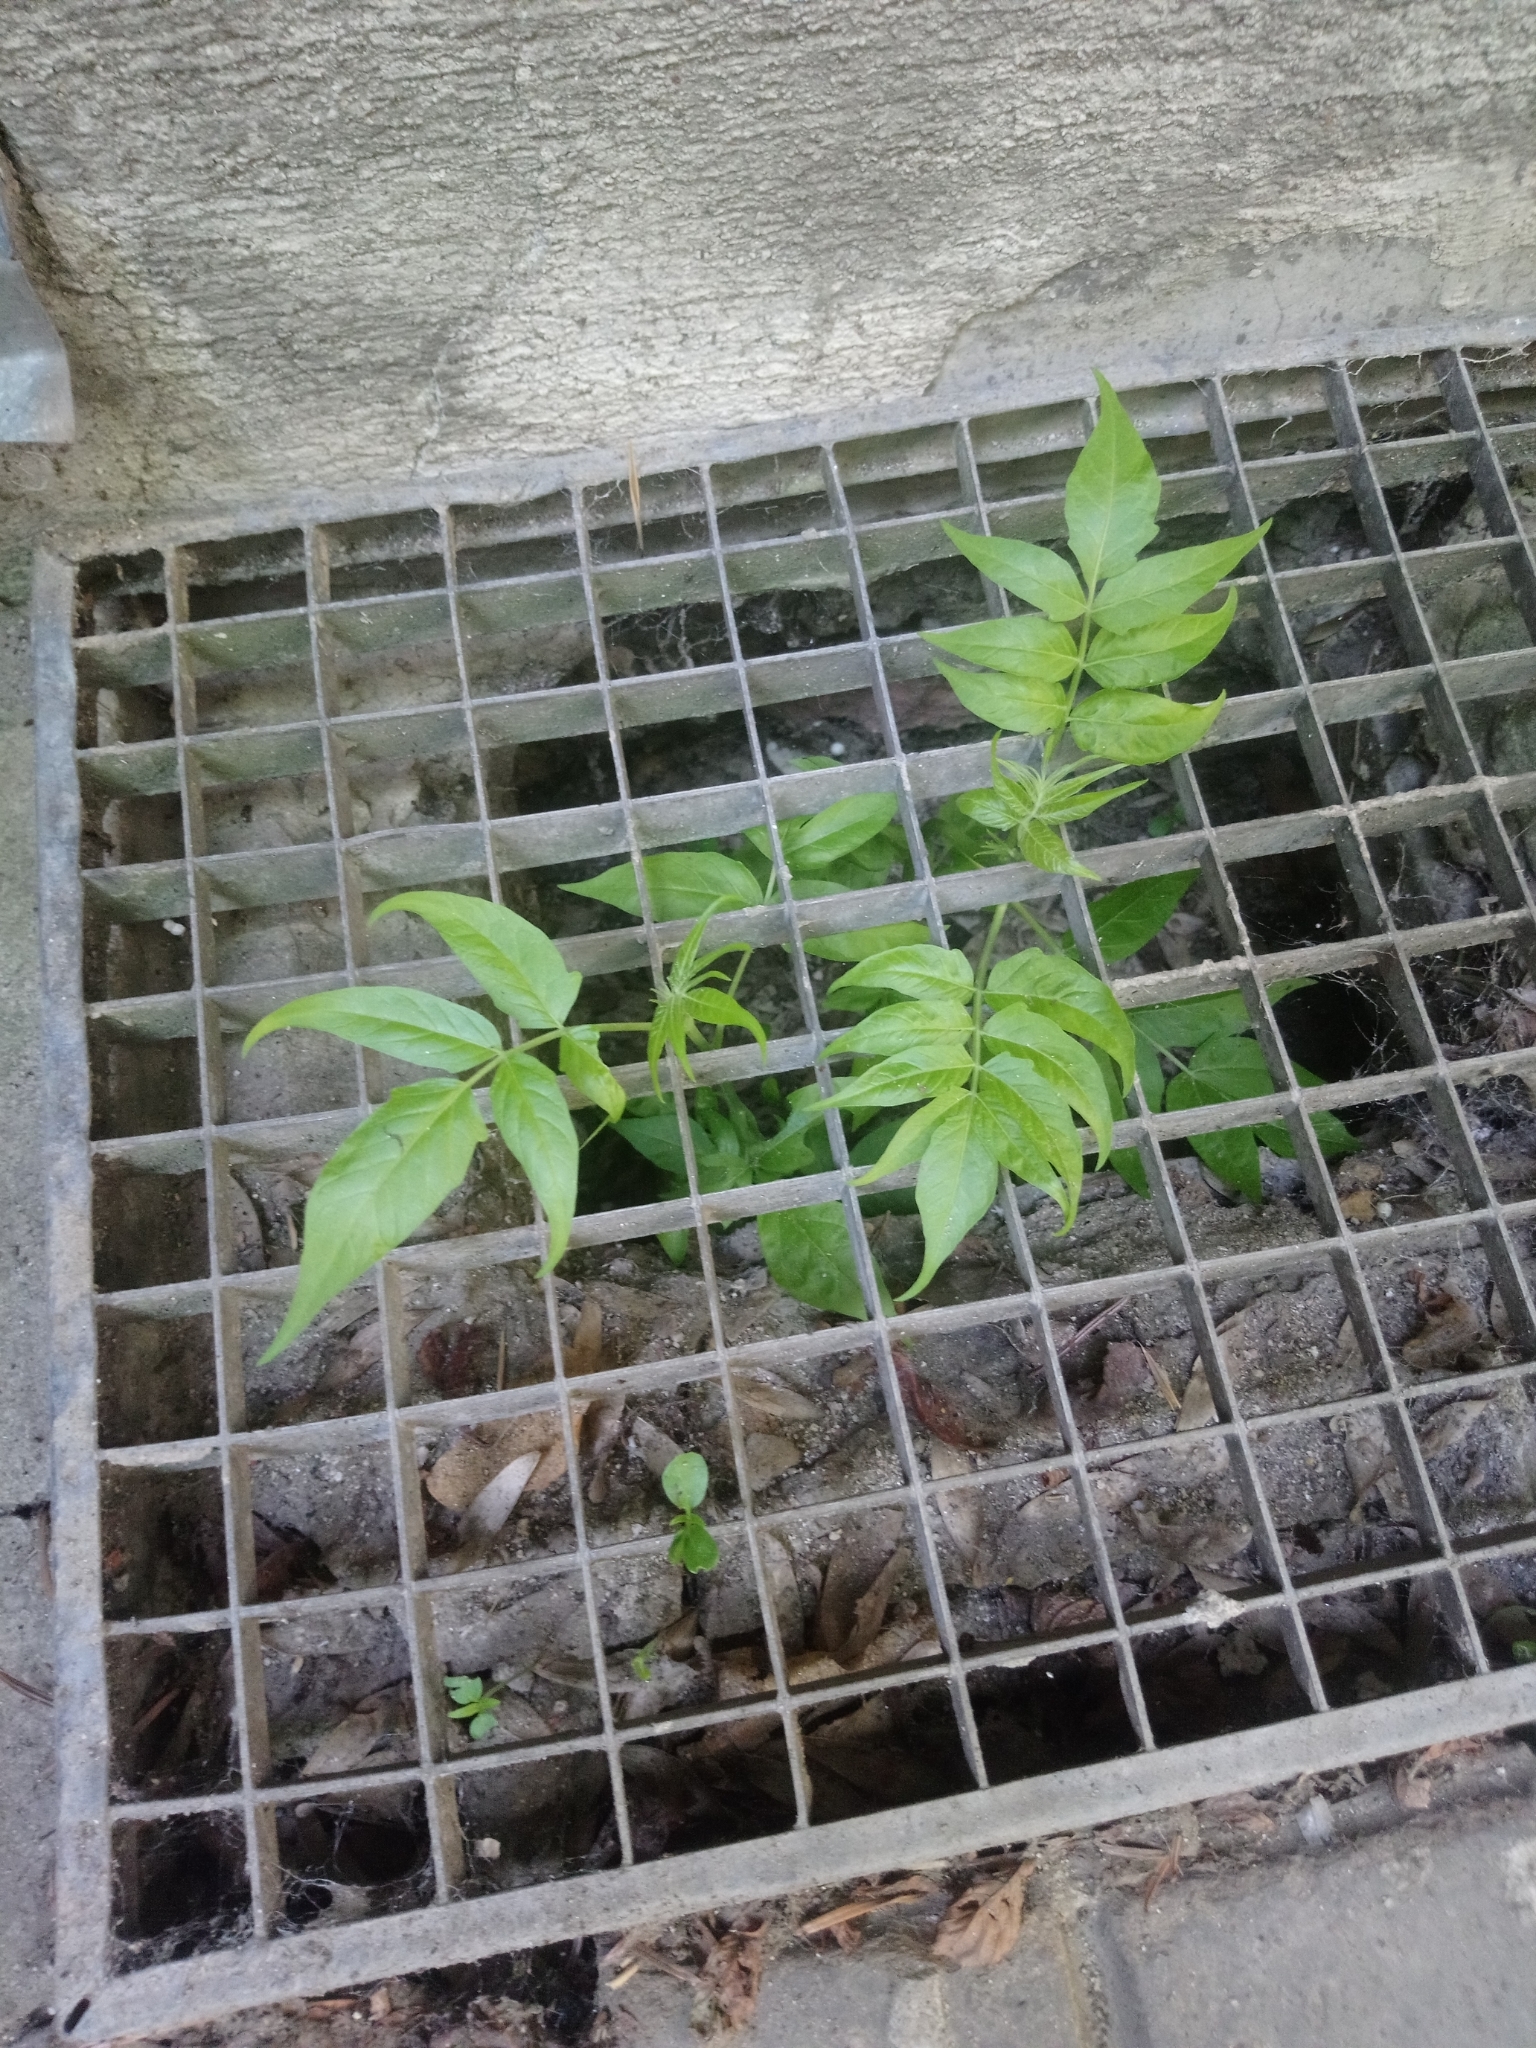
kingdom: Plantae
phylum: Tracheophyta
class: Magnoliopsida
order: Sapindales
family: Simaroubaceae
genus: Ailanthus
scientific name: Ailanthus altissima
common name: Tree-of-heaven
